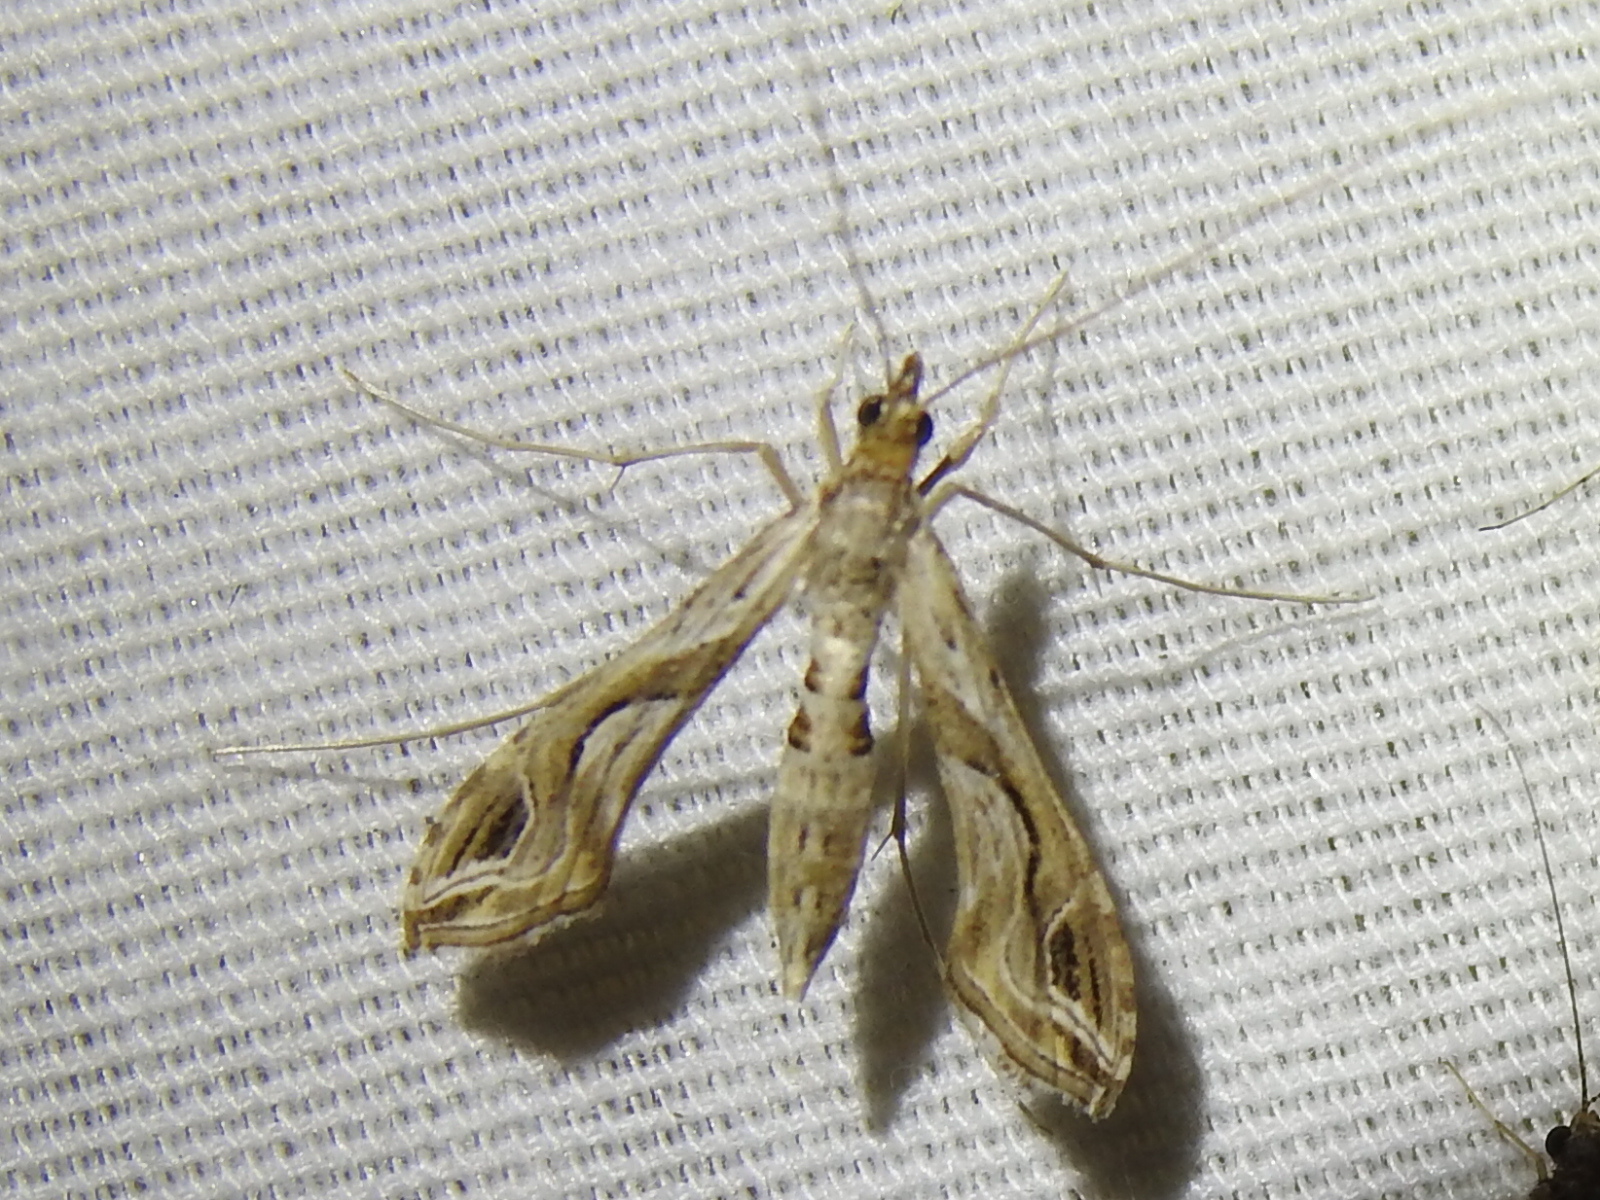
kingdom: Animalia
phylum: Arthropoda
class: Insecta
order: Lepidoptera
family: Crambidae
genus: Lineodes
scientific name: Lineodes integra
